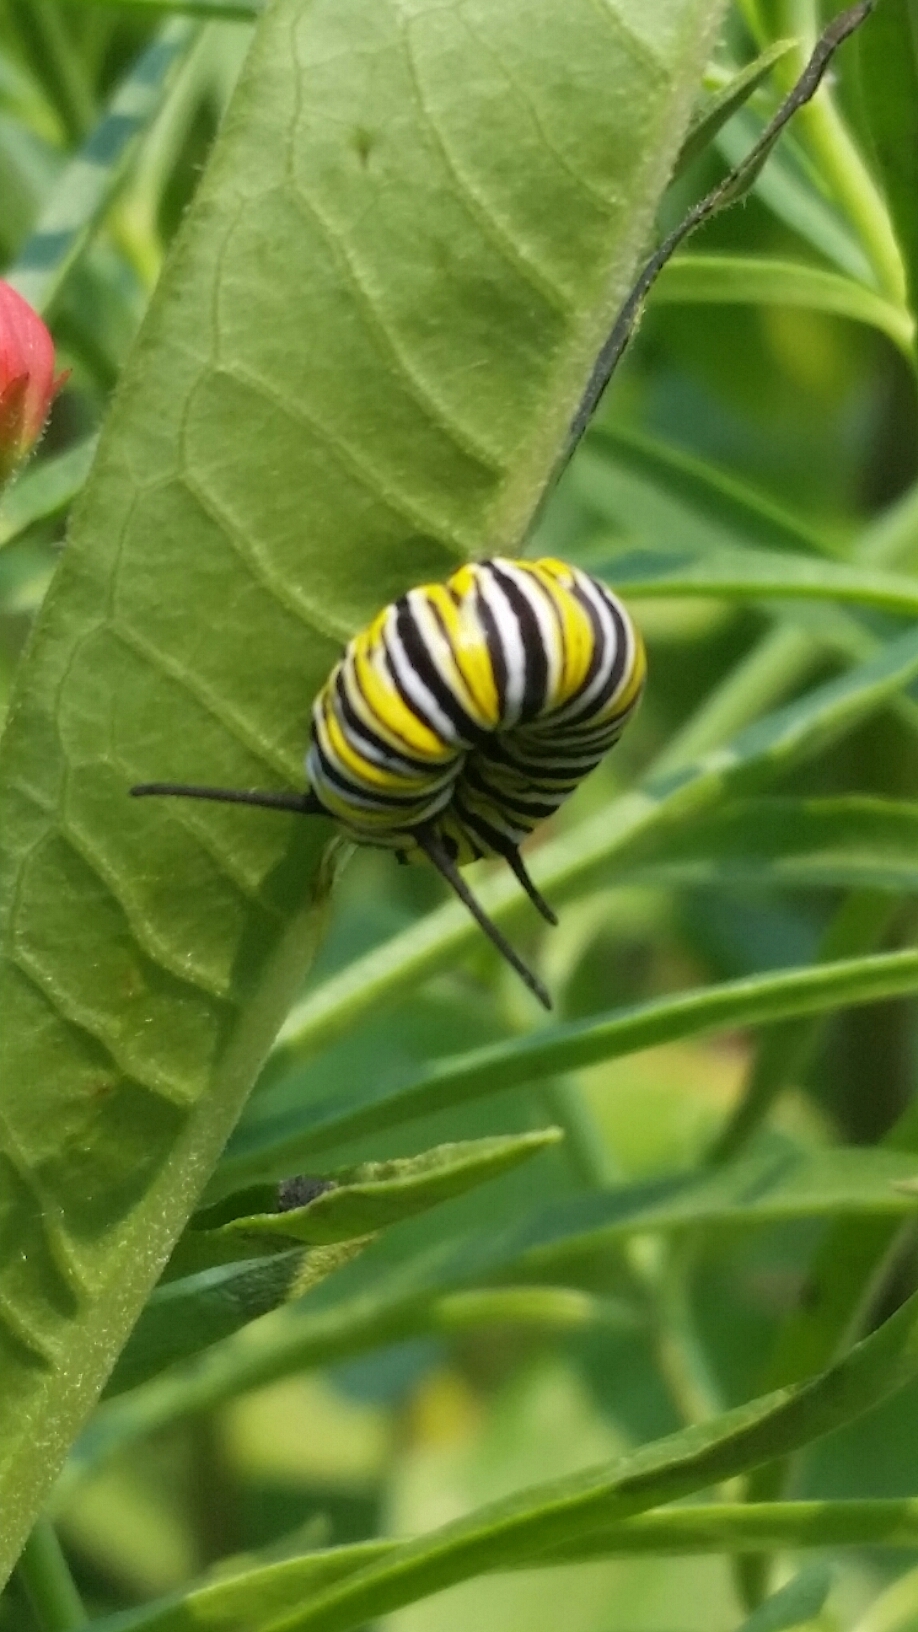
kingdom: Animalia
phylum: Arthropoda
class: Insecta
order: Lepidoptera
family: Nymphalidae
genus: Danaus
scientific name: Danaus plexippus
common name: Monarch
